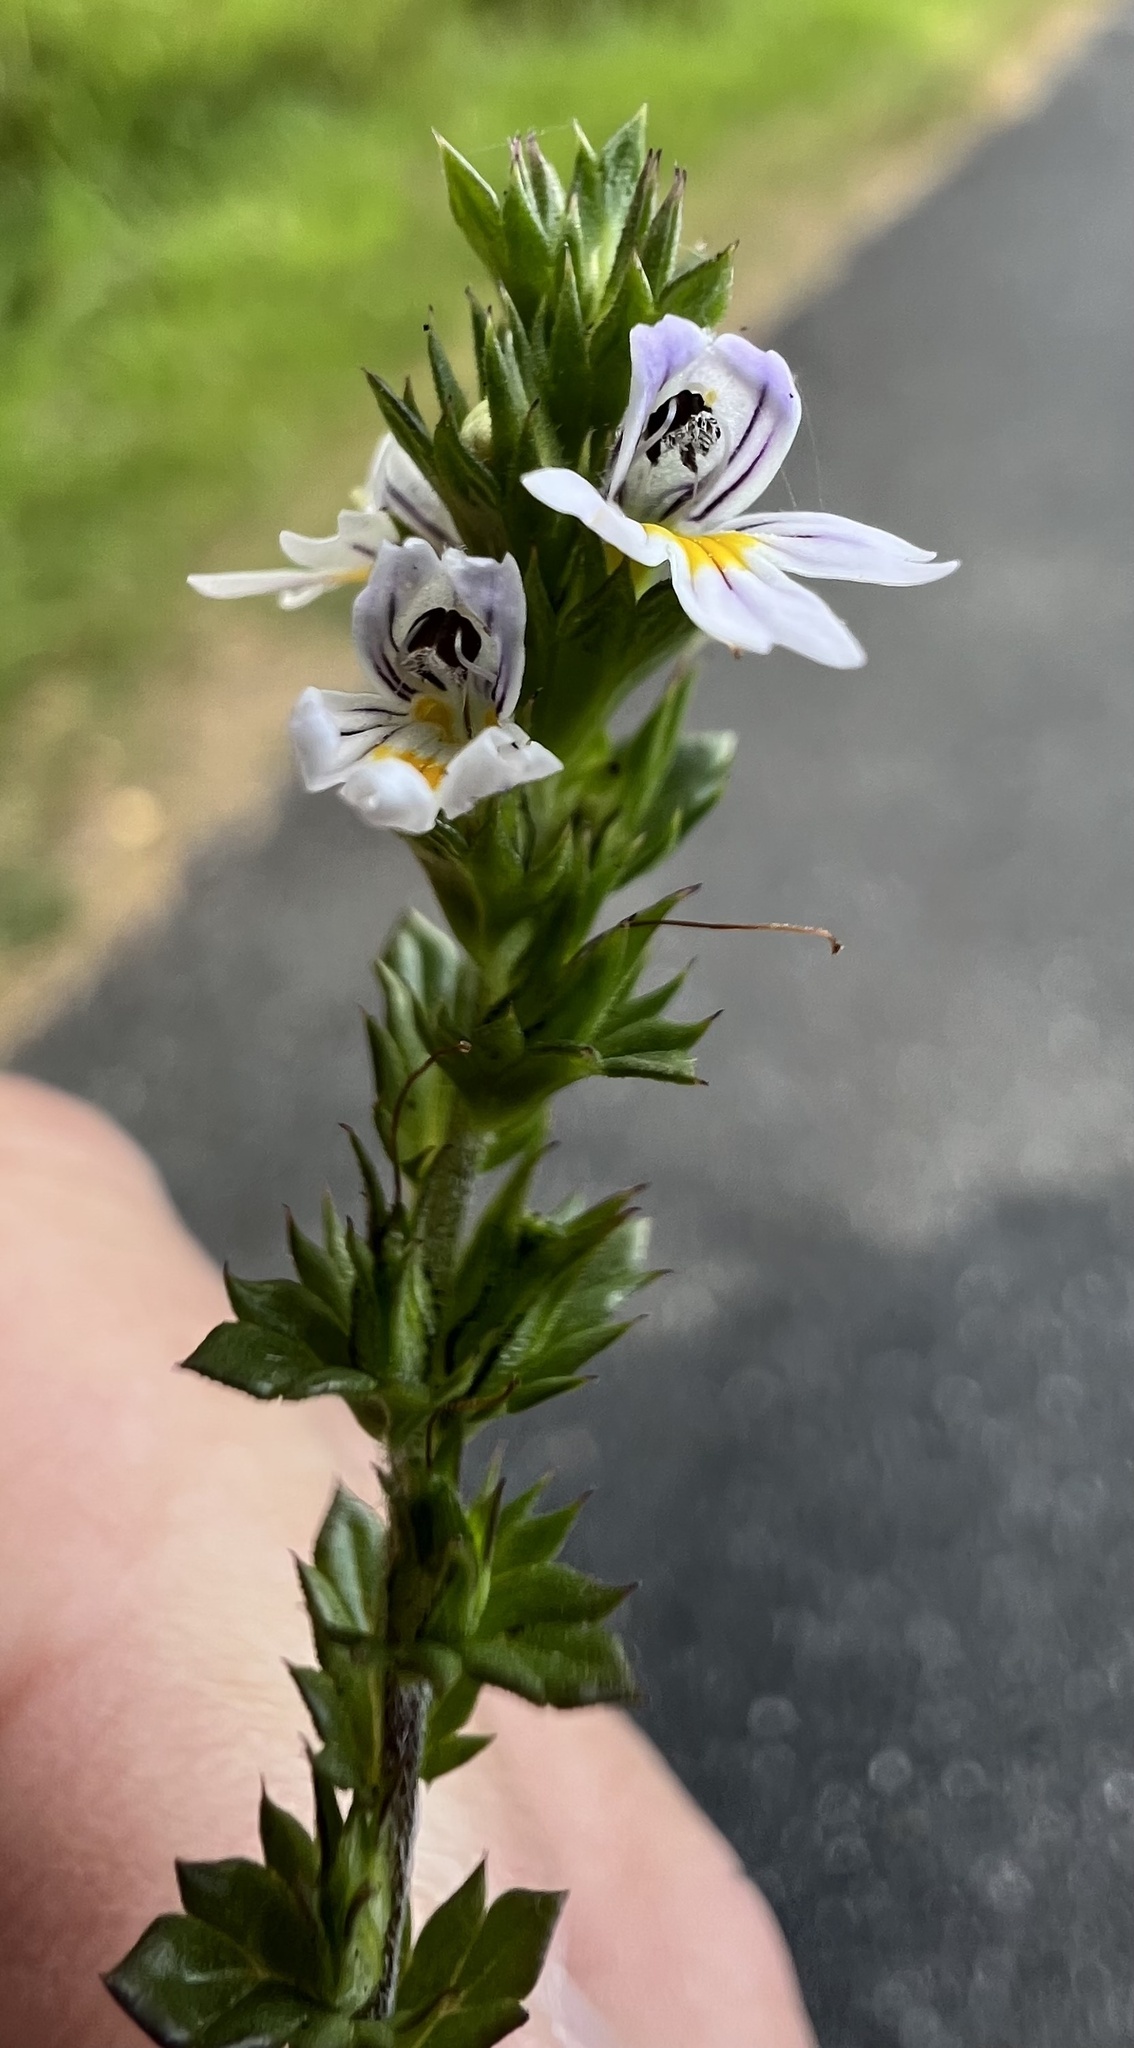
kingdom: Plantae
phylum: Tracheophyta
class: Magnoliopsida
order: Lamiales
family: Orobanchaceae
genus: Euphrasia
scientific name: Euphrasia nemorosa
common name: Common eyebright
